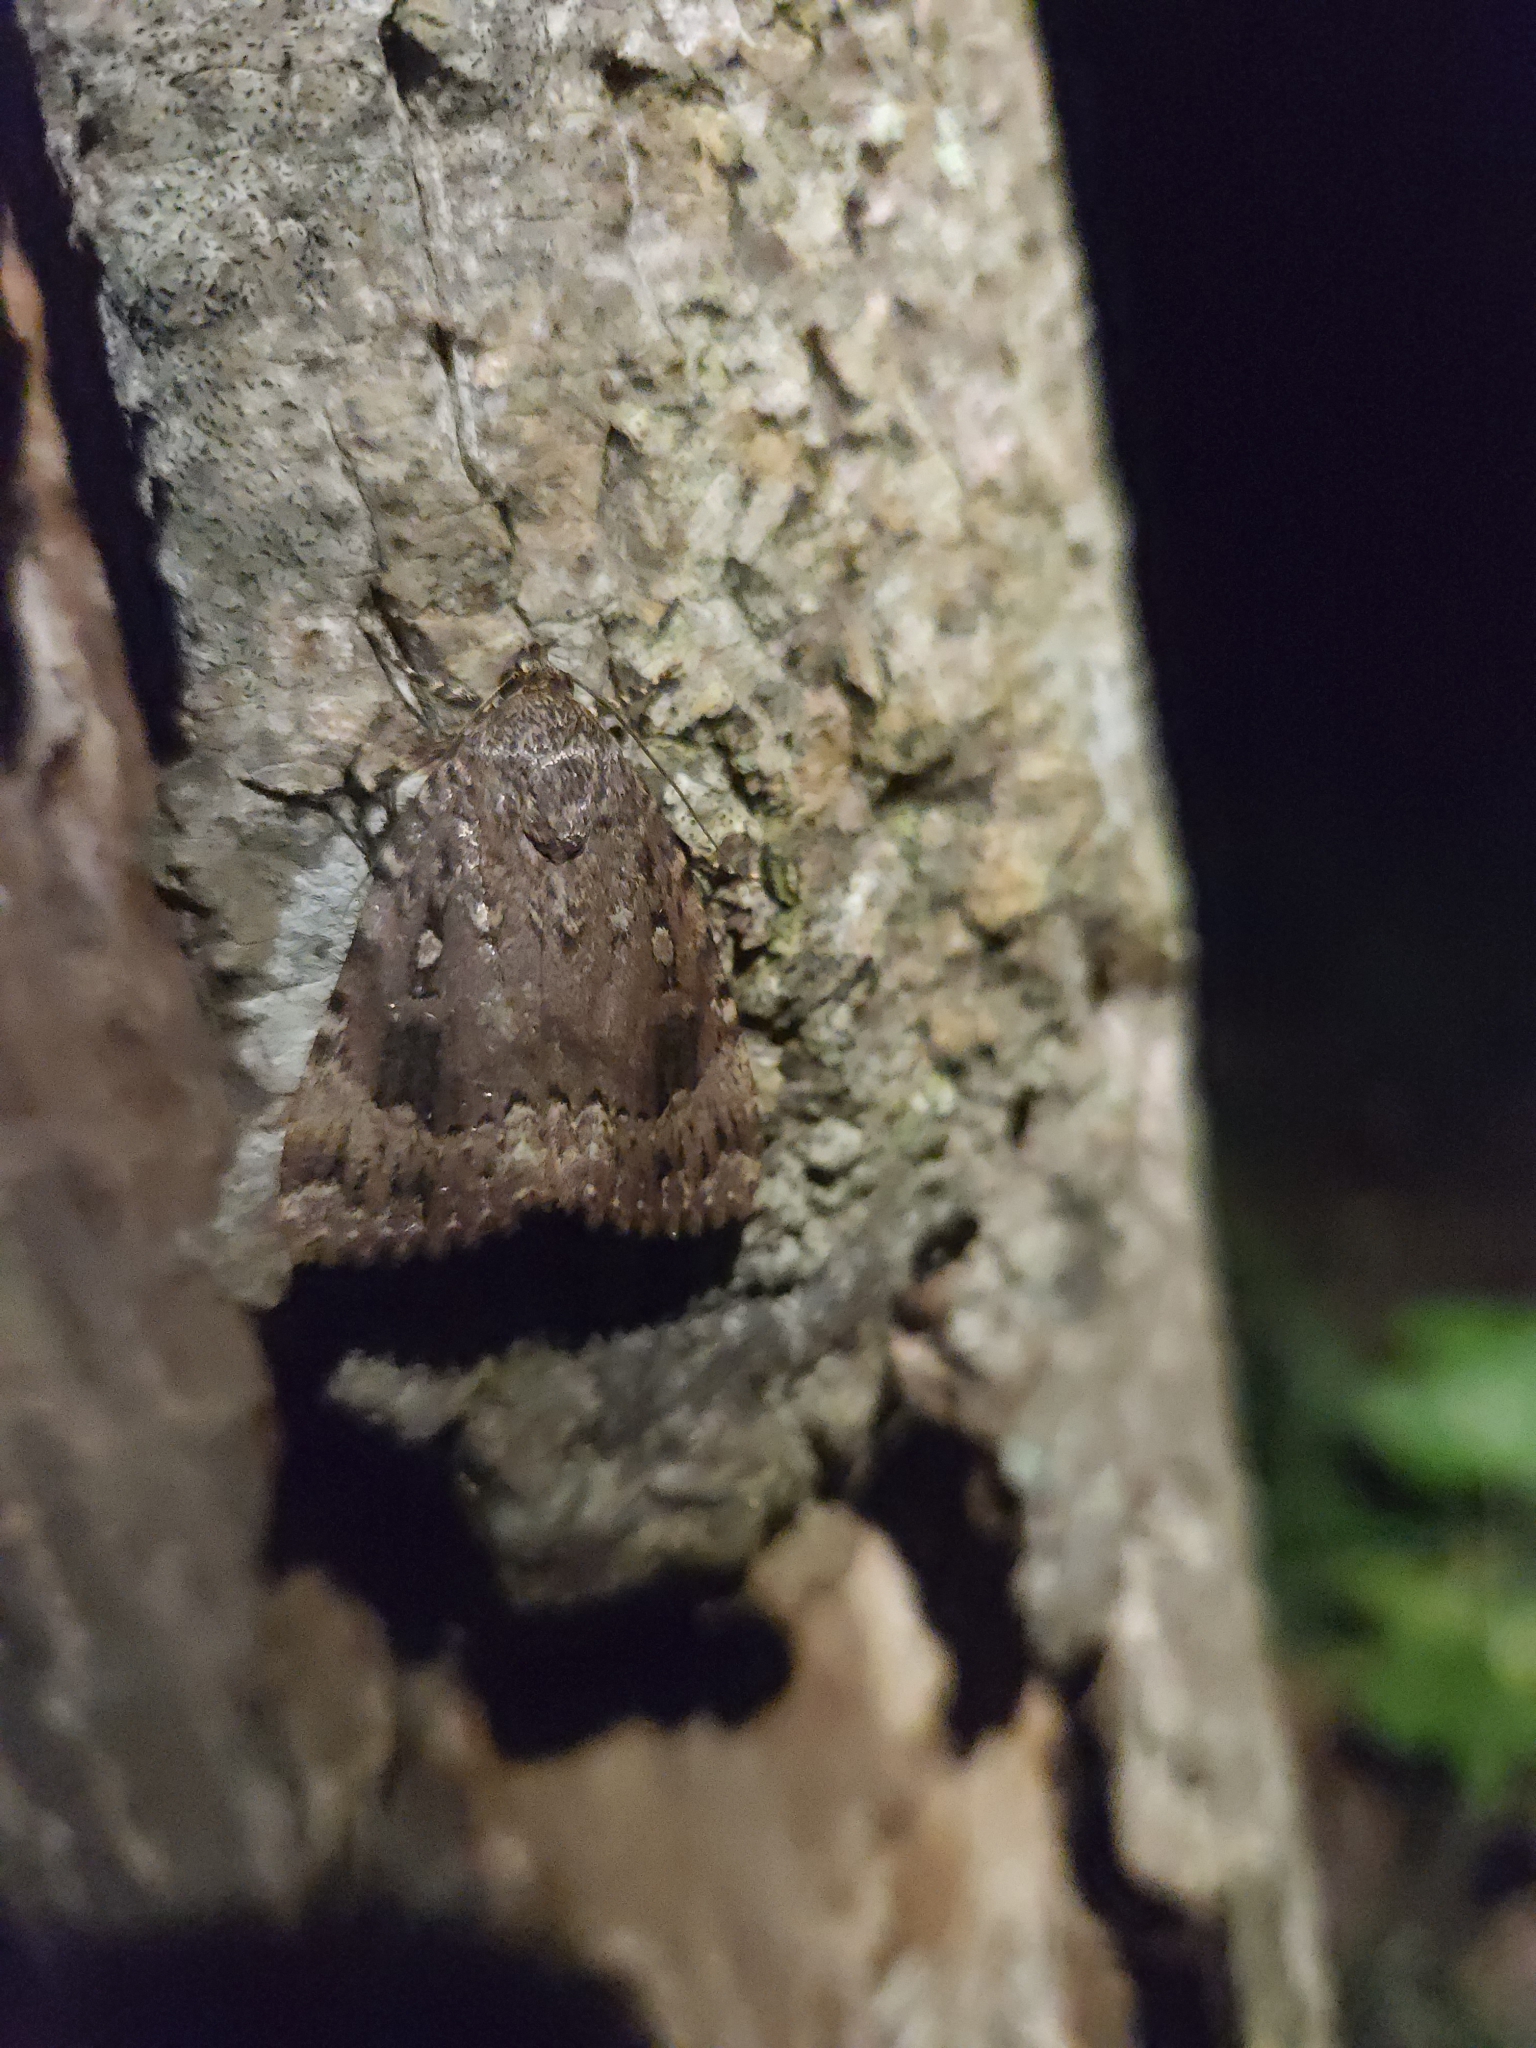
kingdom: Animalia
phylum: Arthropoda
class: Insecta
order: Lepidoptera
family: Noctuidae
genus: Amphipyra
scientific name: Amphipyra pyramidoides
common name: American copper underwing
